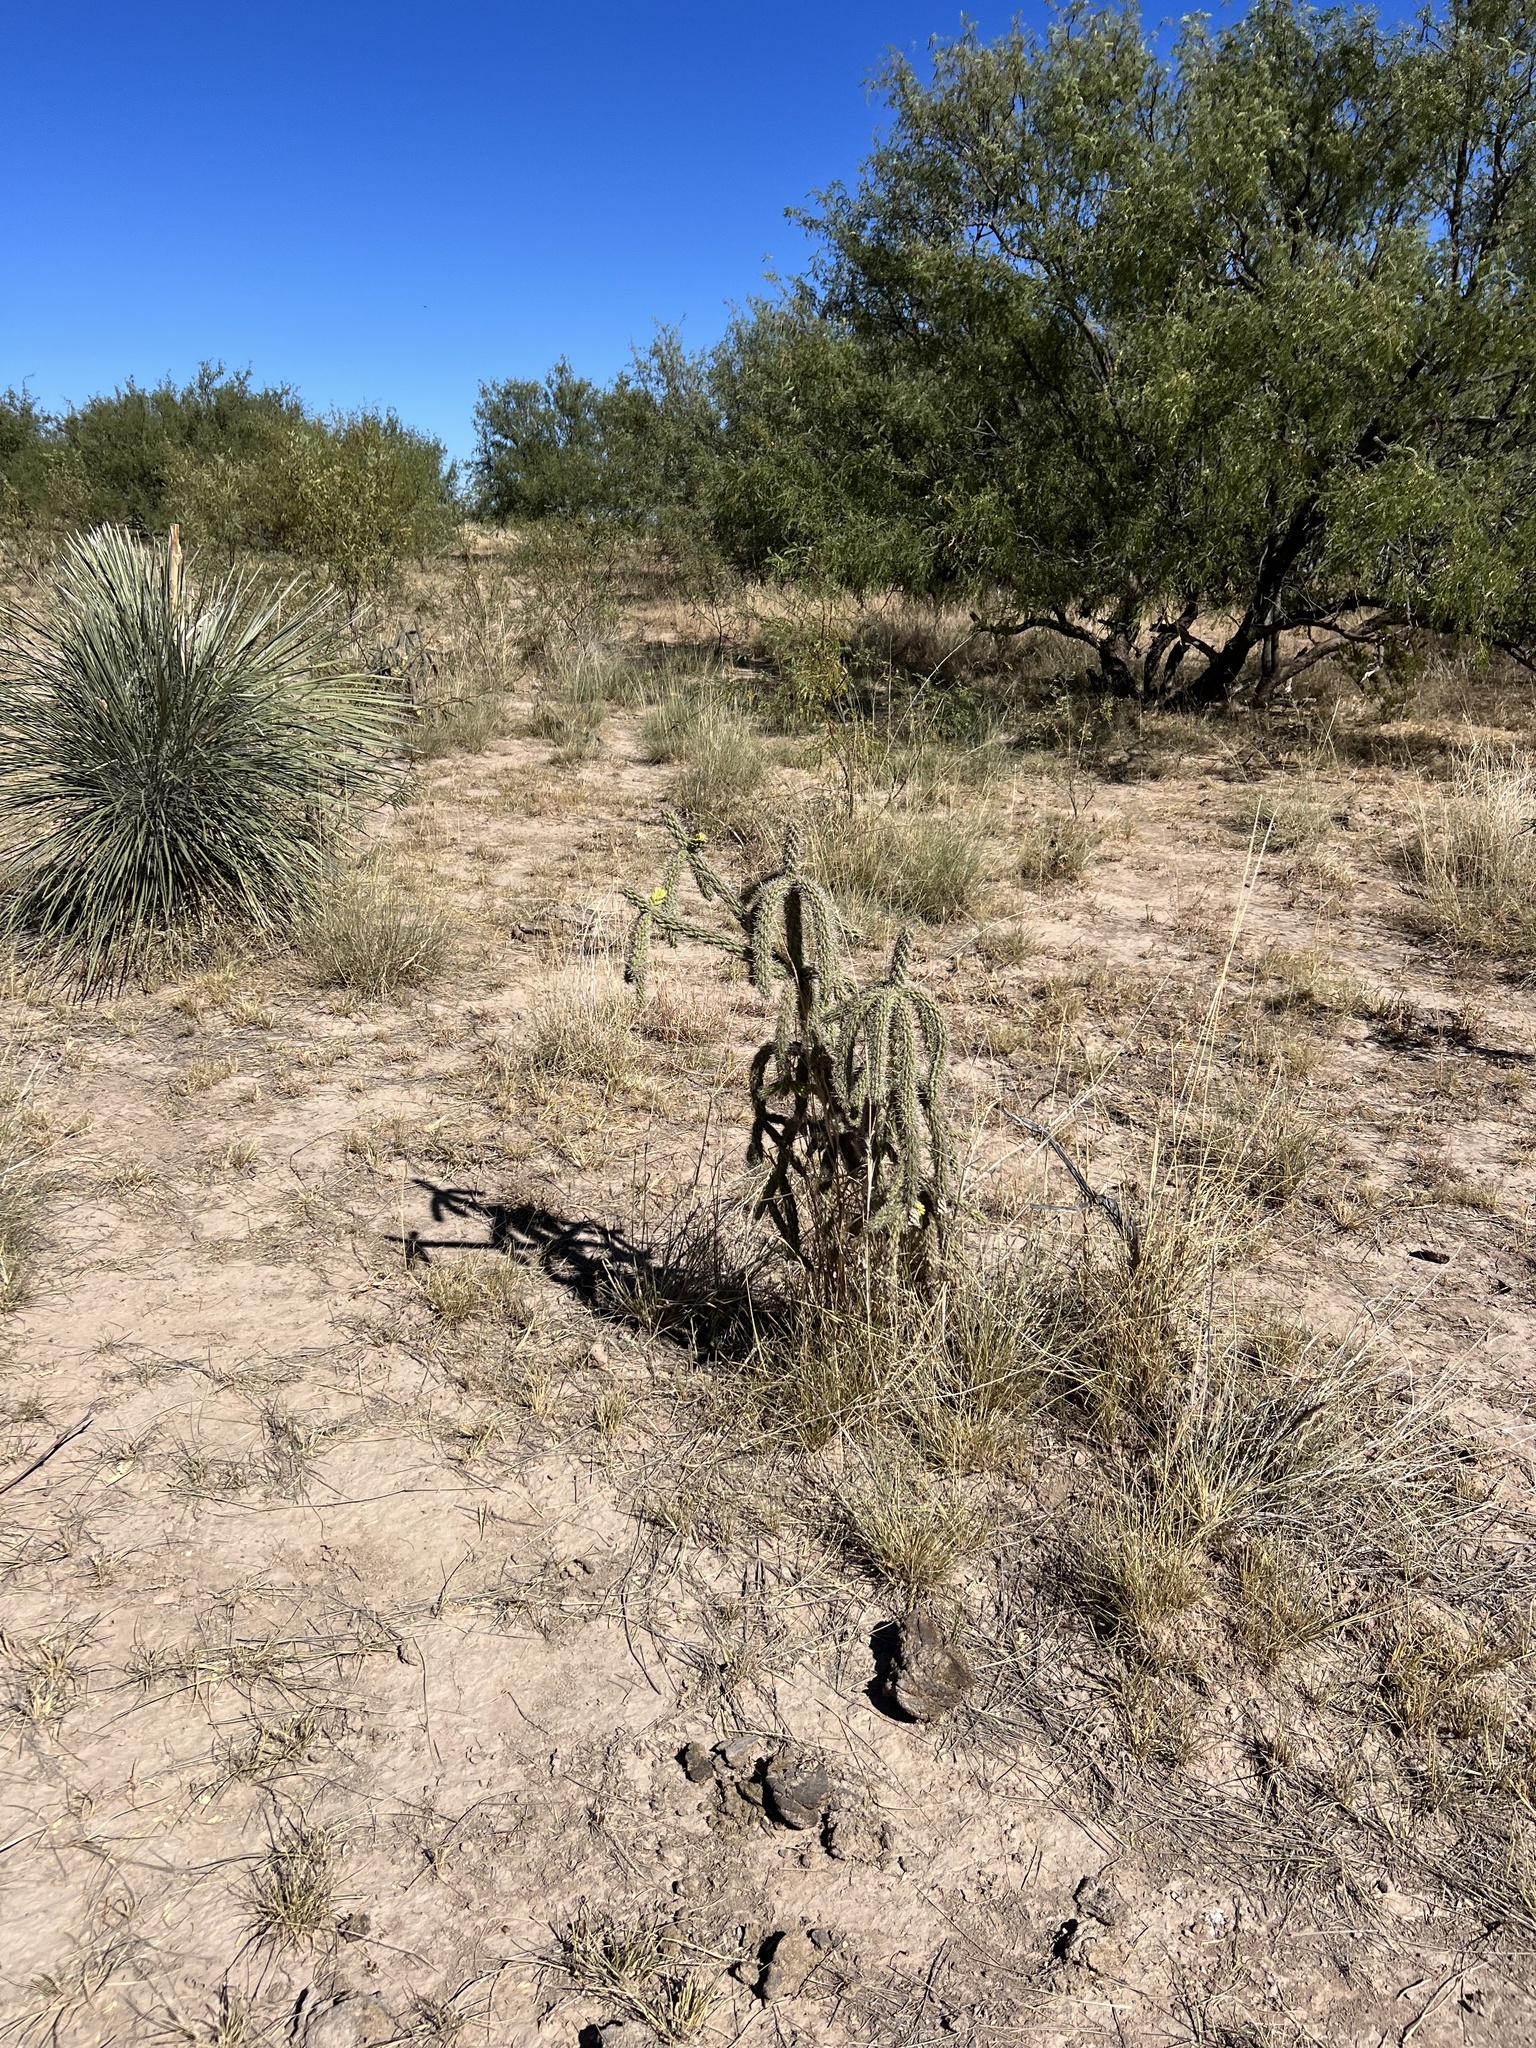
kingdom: Plantae
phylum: Tracheophyta
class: Magnoliopsida
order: Caryophyllales
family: Cactaceae
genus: Cylindropuntia
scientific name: Cylindropuntia imbricata
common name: Candelabrum cactus
